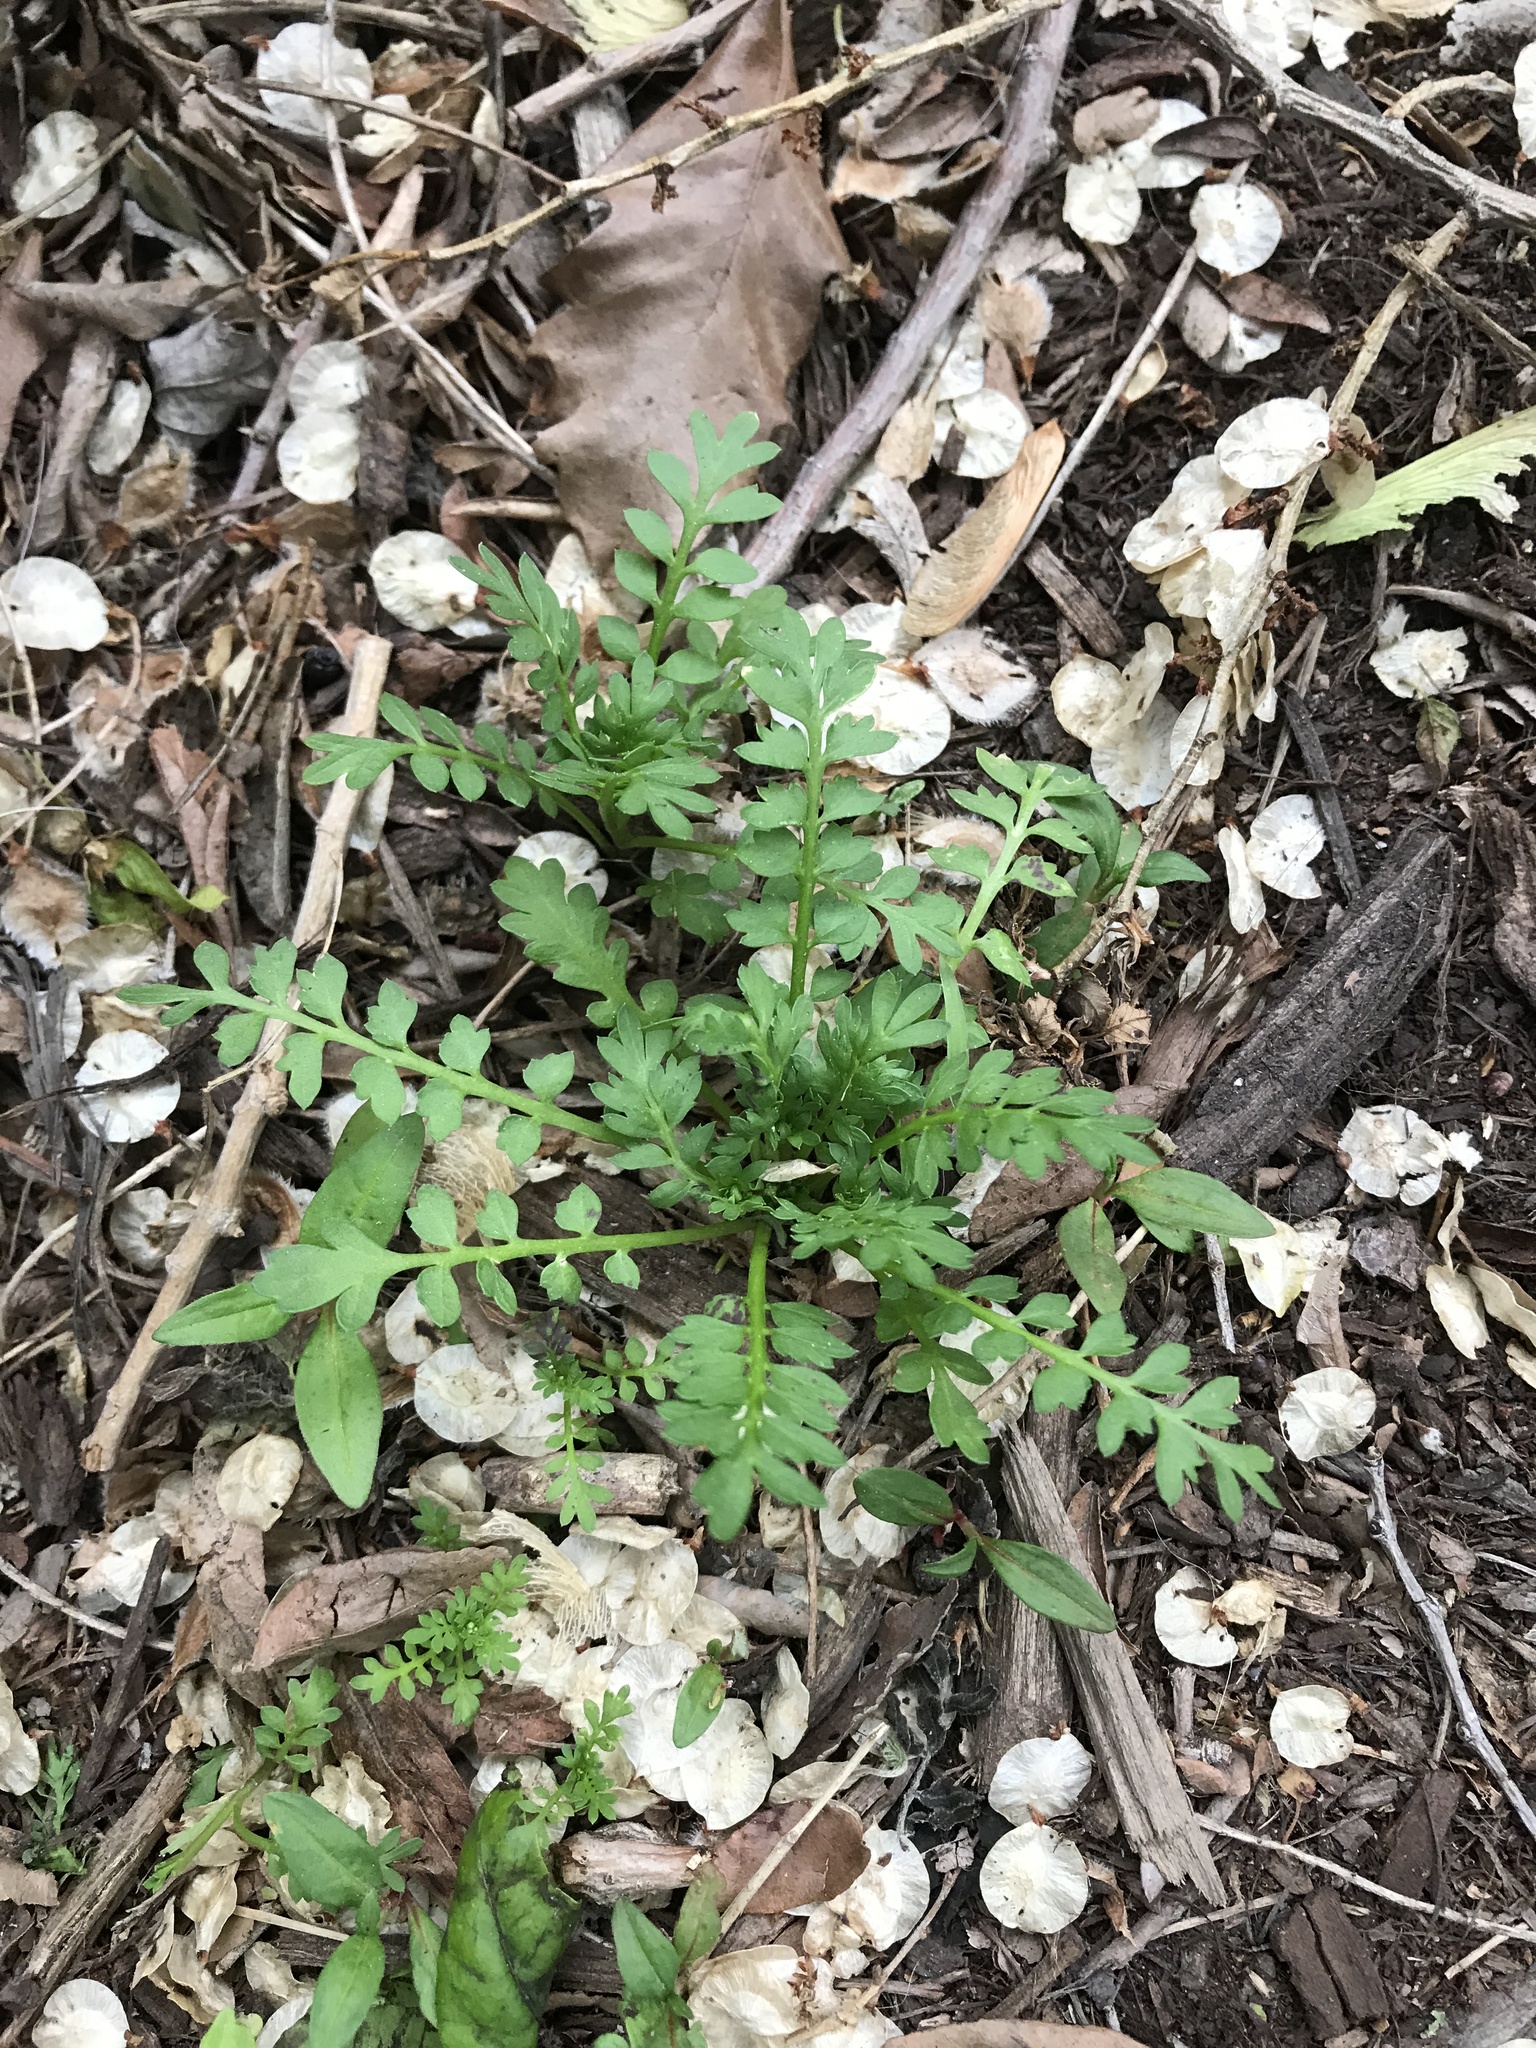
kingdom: Plantae
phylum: Tracheophyta
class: Magnoliopsida
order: Brassicales
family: Brassicaceae
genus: Lepidium
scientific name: Lepidium didymum
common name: Lesser swinecress
